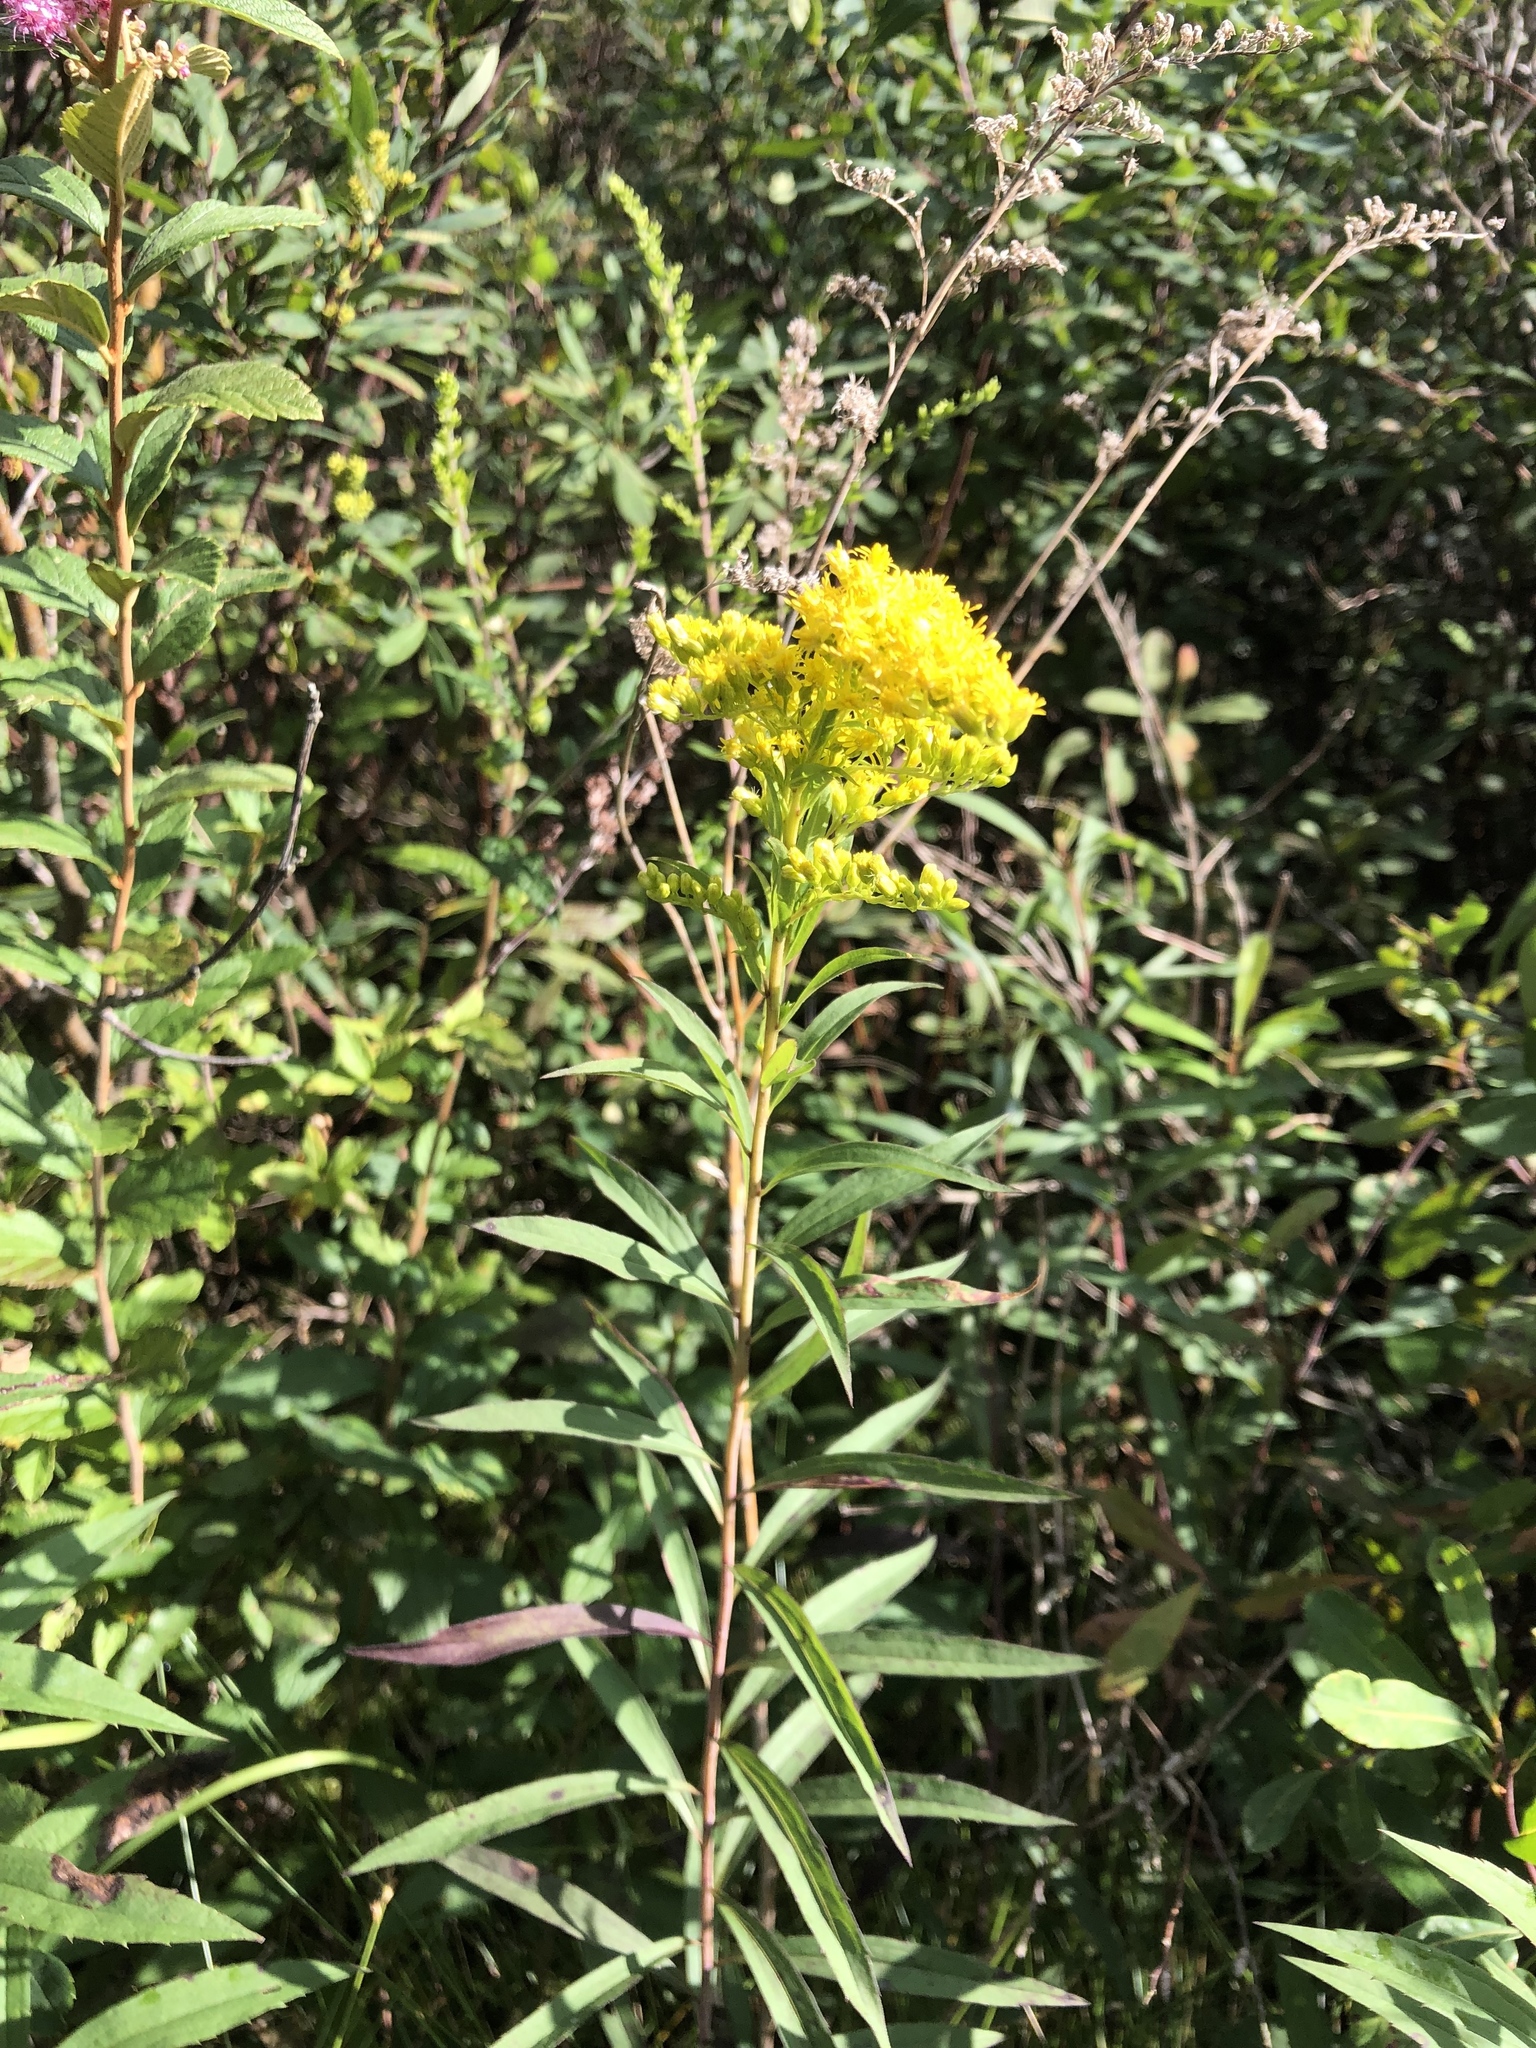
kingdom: Plantae
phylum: Tracheophyta
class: Magnoliopsida
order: Asterales
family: Asteraceae
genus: Solidago
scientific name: Solidago gigantea
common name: Giant goldenrod
